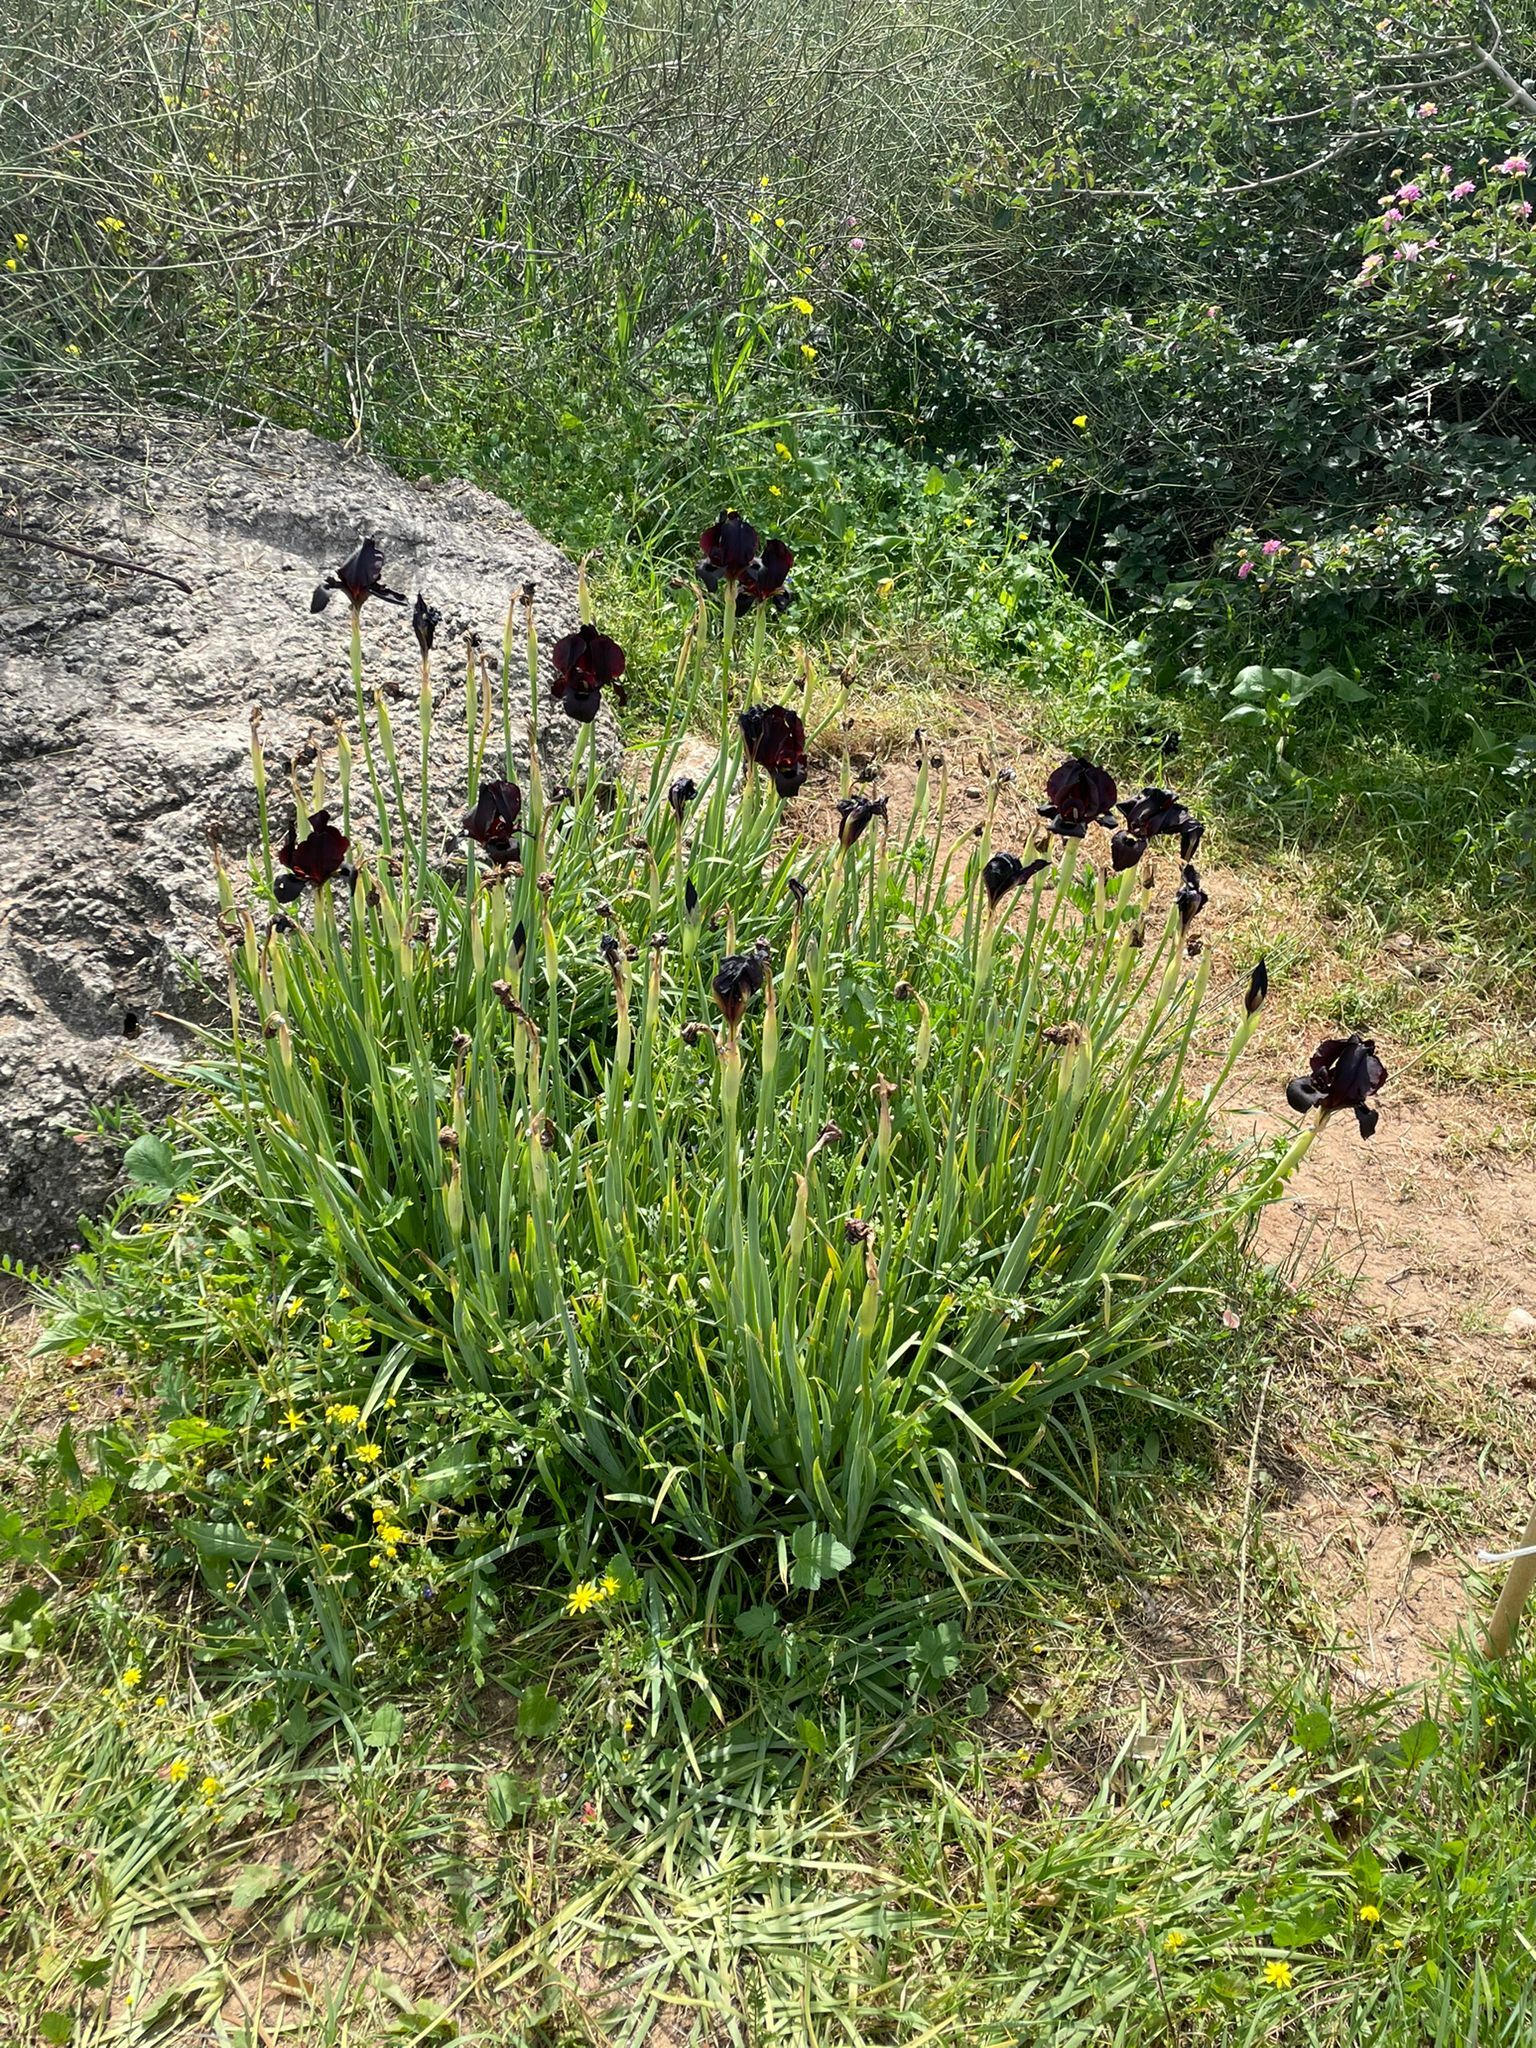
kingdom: Plantae
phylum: Tracheophyta
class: Liliopsida
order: Asparagales
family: Iridaceae
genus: Iris
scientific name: Iris atropurpurea
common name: Coastal iris
